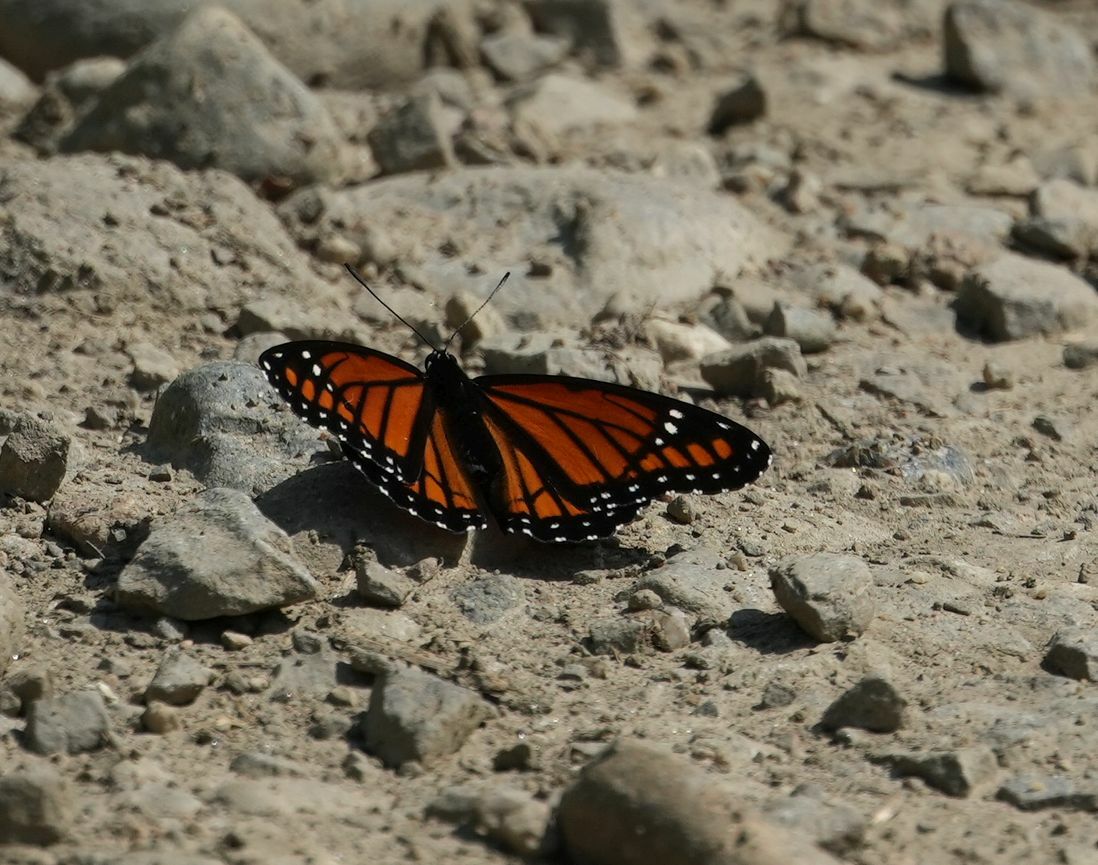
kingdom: Animalia
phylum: Arthropoda
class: Insecta
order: Lepidoptera
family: Nymphalidae
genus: Limenitis
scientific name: Limenitis archippus
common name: Viceroy
